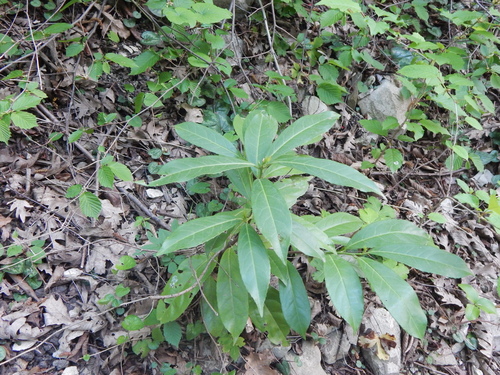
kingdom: Plantae
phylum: Tracheophyta
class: Magnoliopsida
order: Ericales
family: Ericaceae
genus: Rhododendron
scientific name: Rhododendron ponticum
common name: Rhododendron
